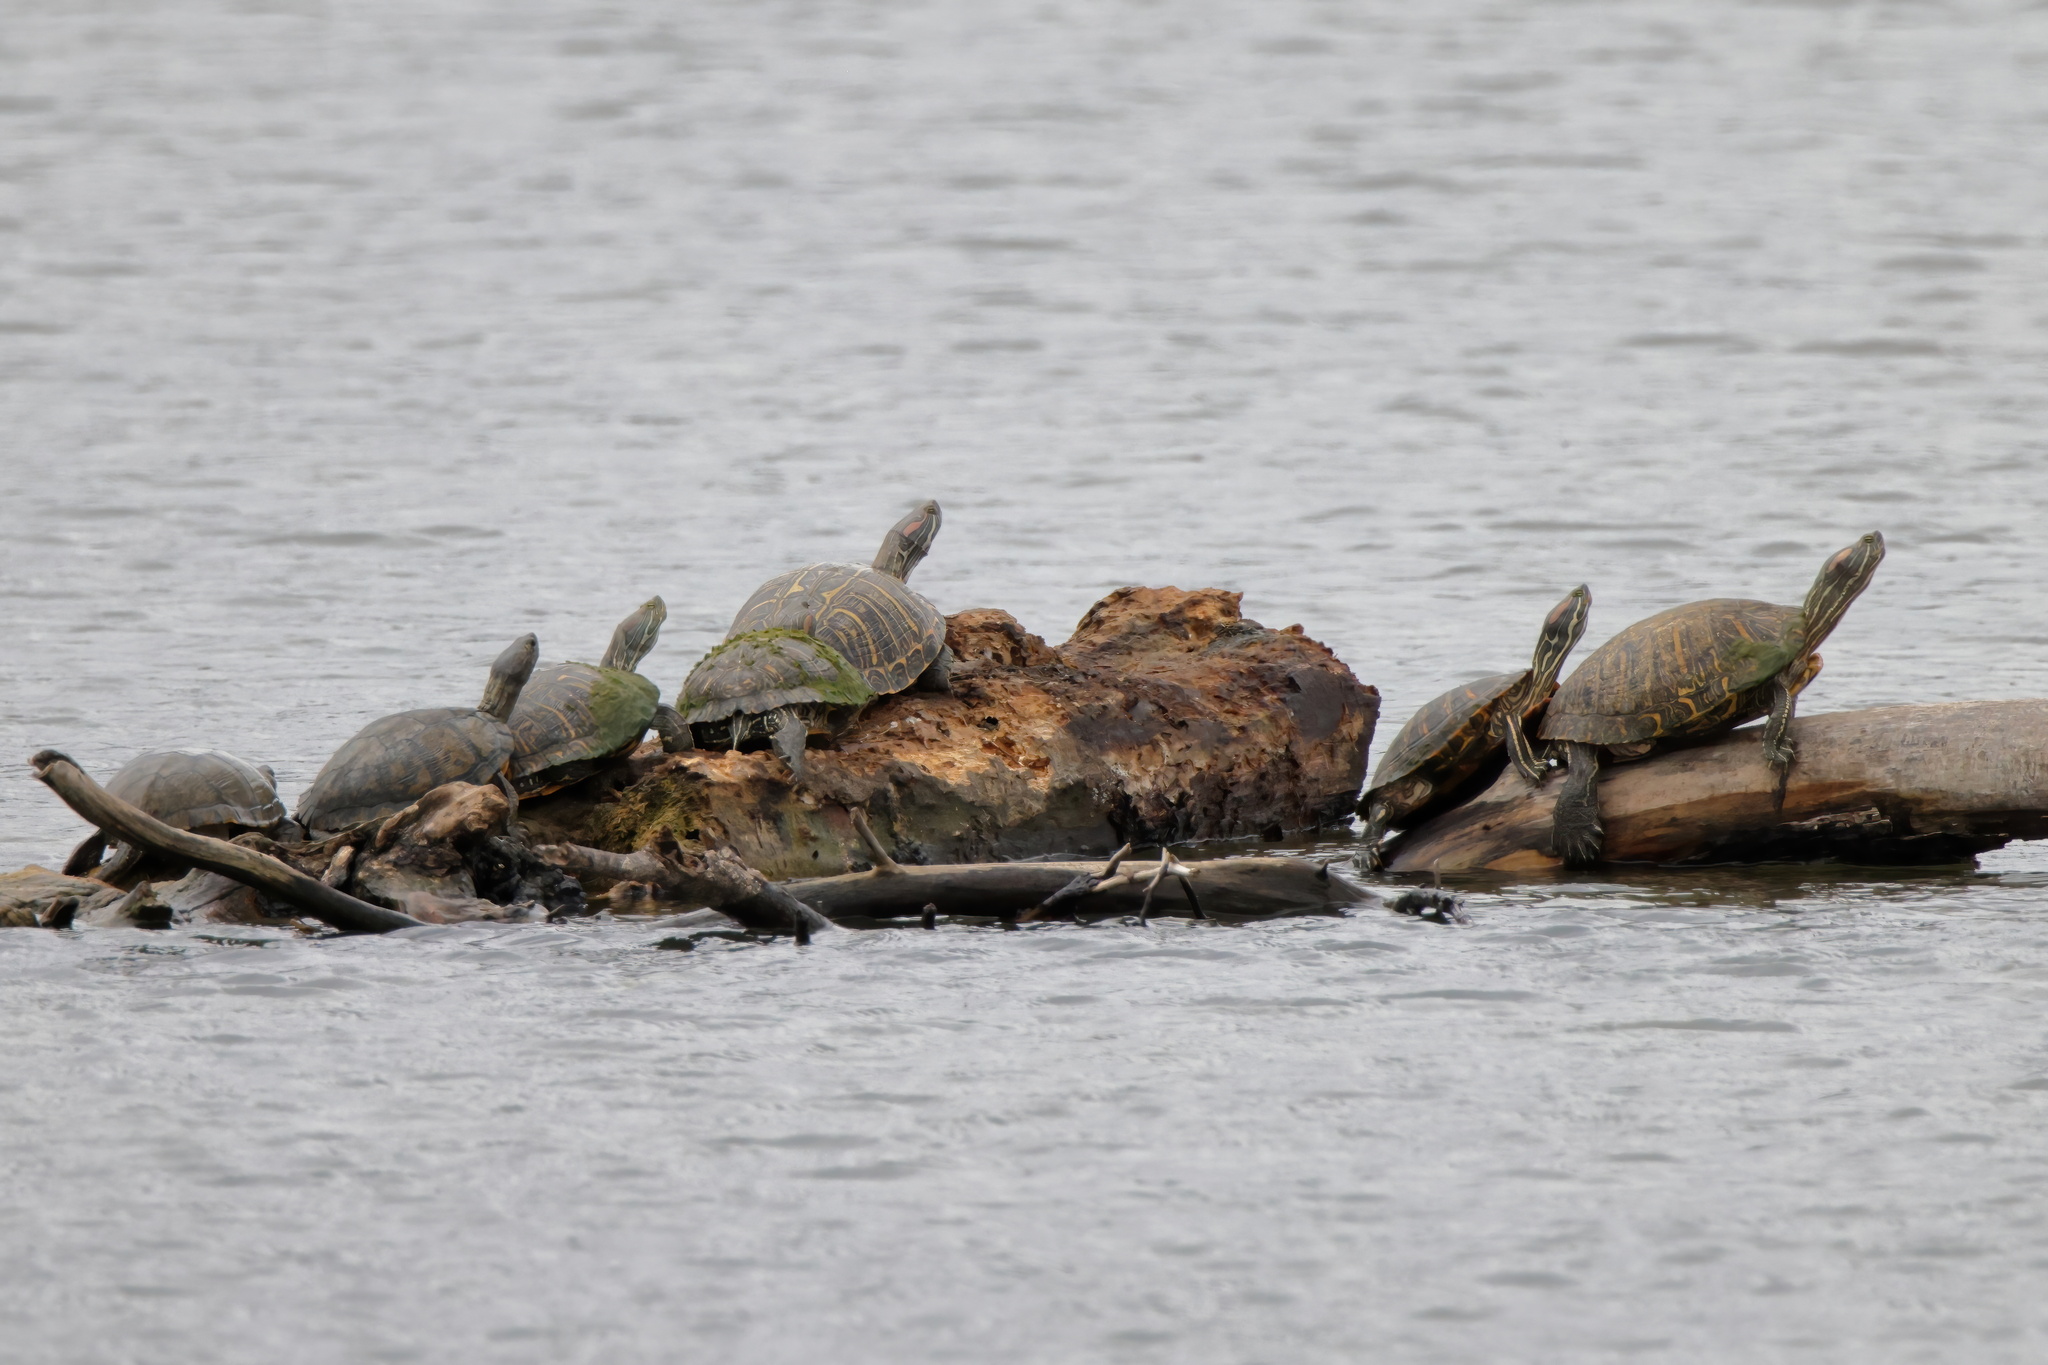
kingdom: Animalia
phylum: Chordata
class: Testudines
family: Emydidae
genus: Trachemys
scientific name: Trachemys scripta
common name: Slider
